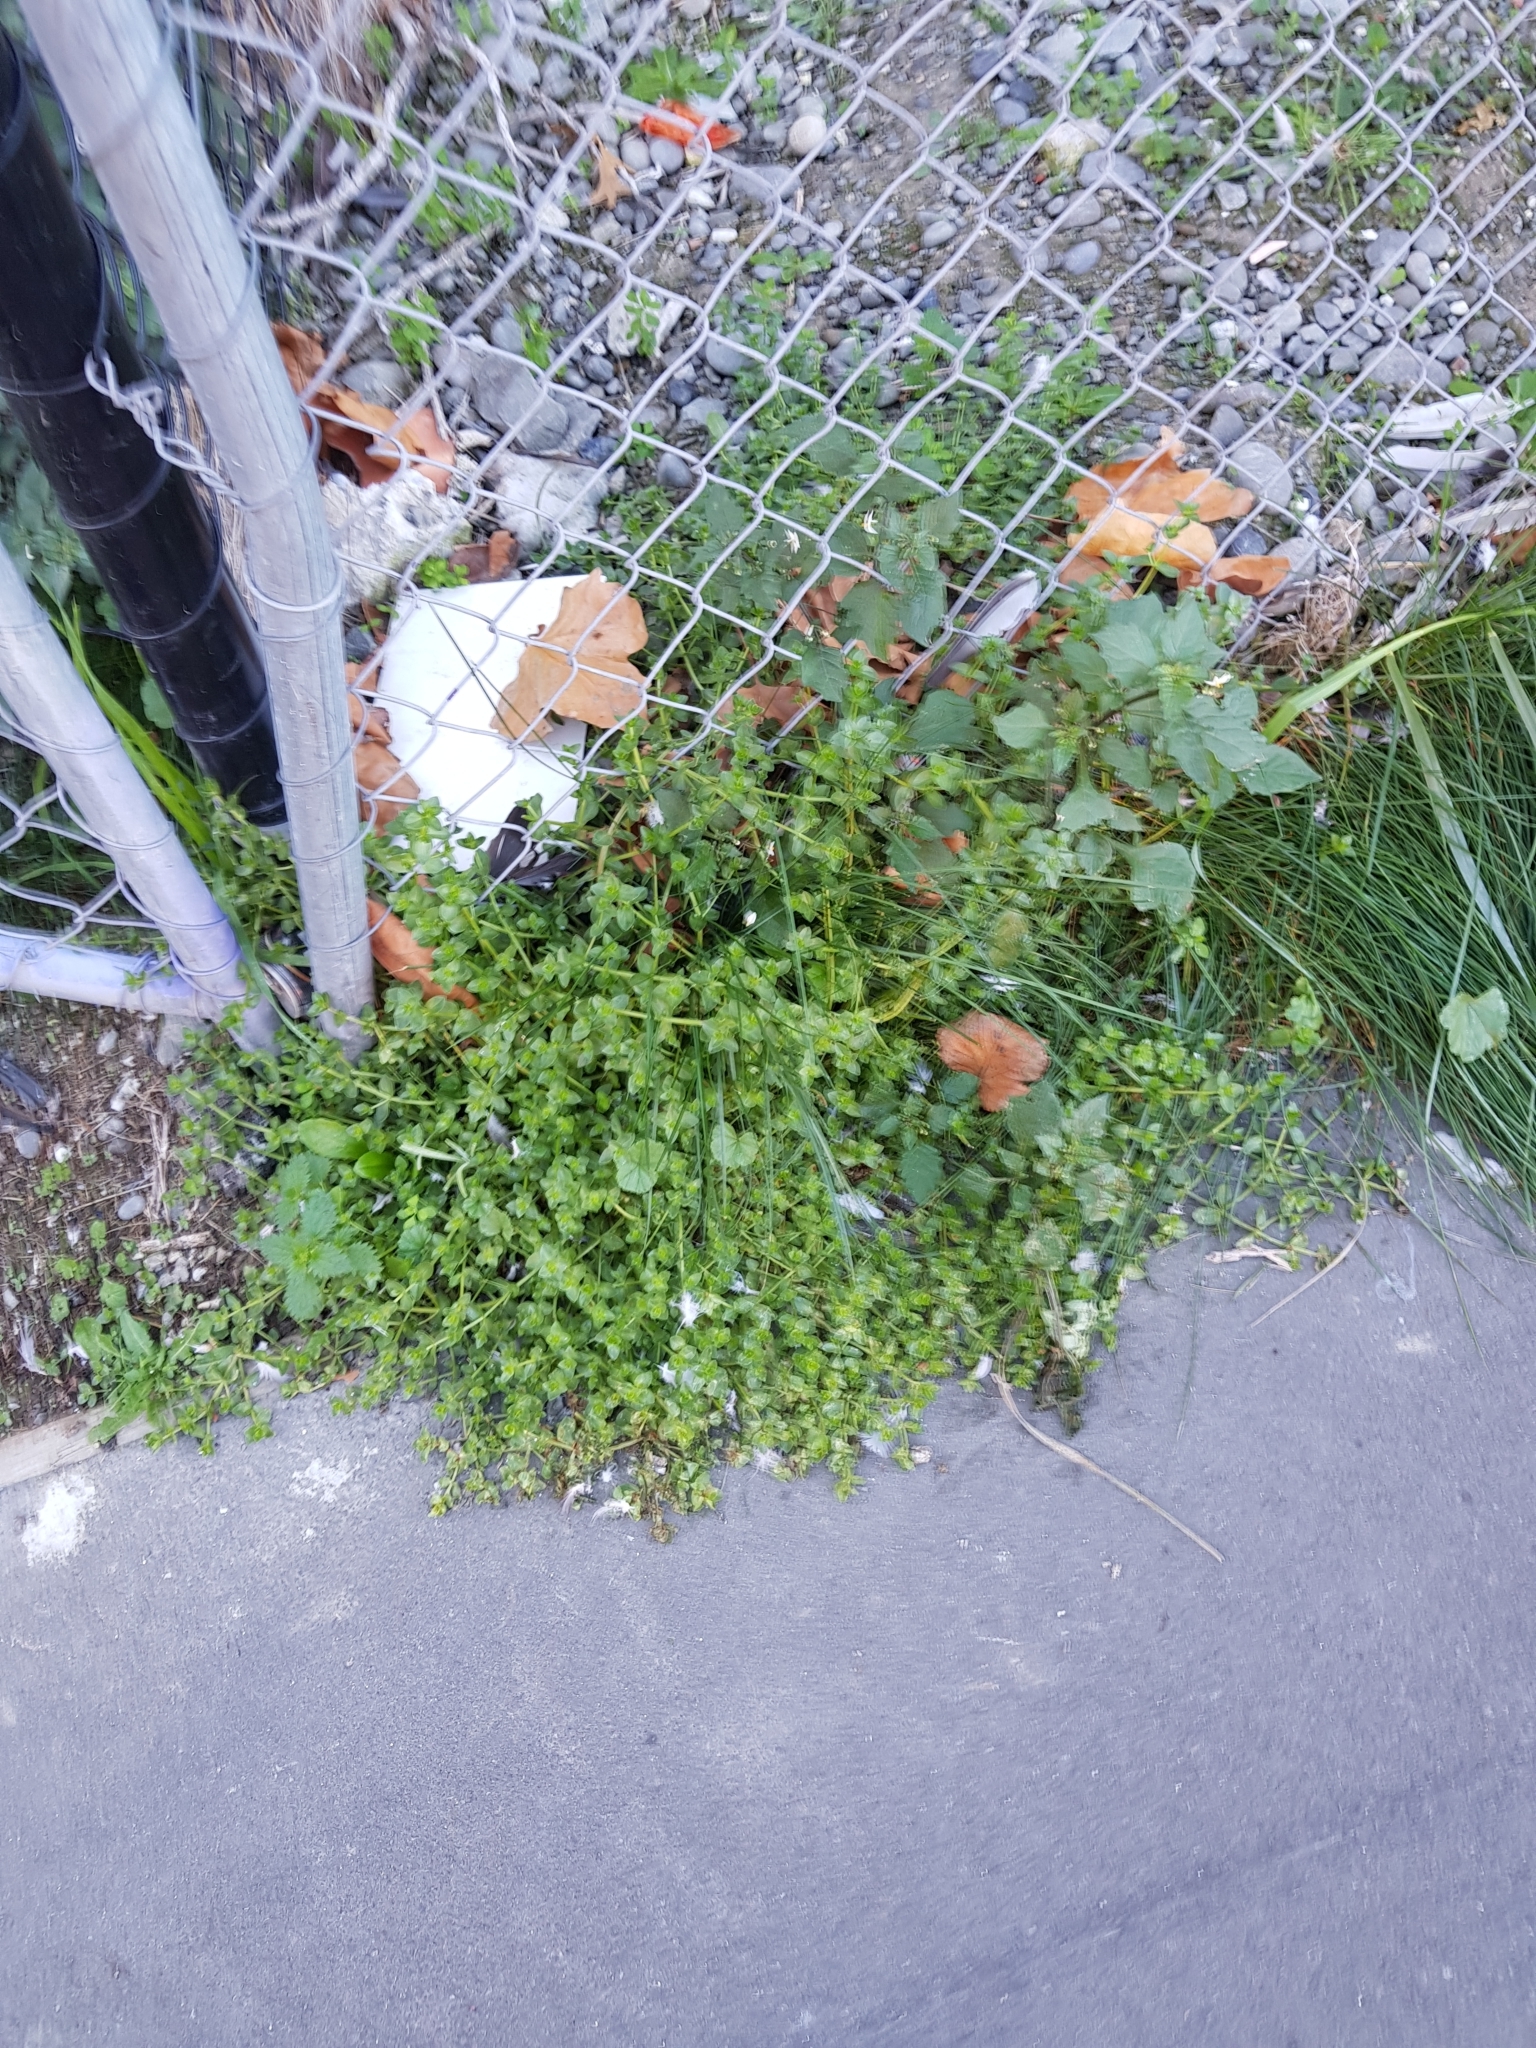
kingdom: Plantae
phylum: Tracheophyta
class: Magnoliopsida
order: Ericales
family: Primulaceae
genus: Lysimachia
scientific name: Lysimachia arvensis
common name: Scarlet pimpernel
